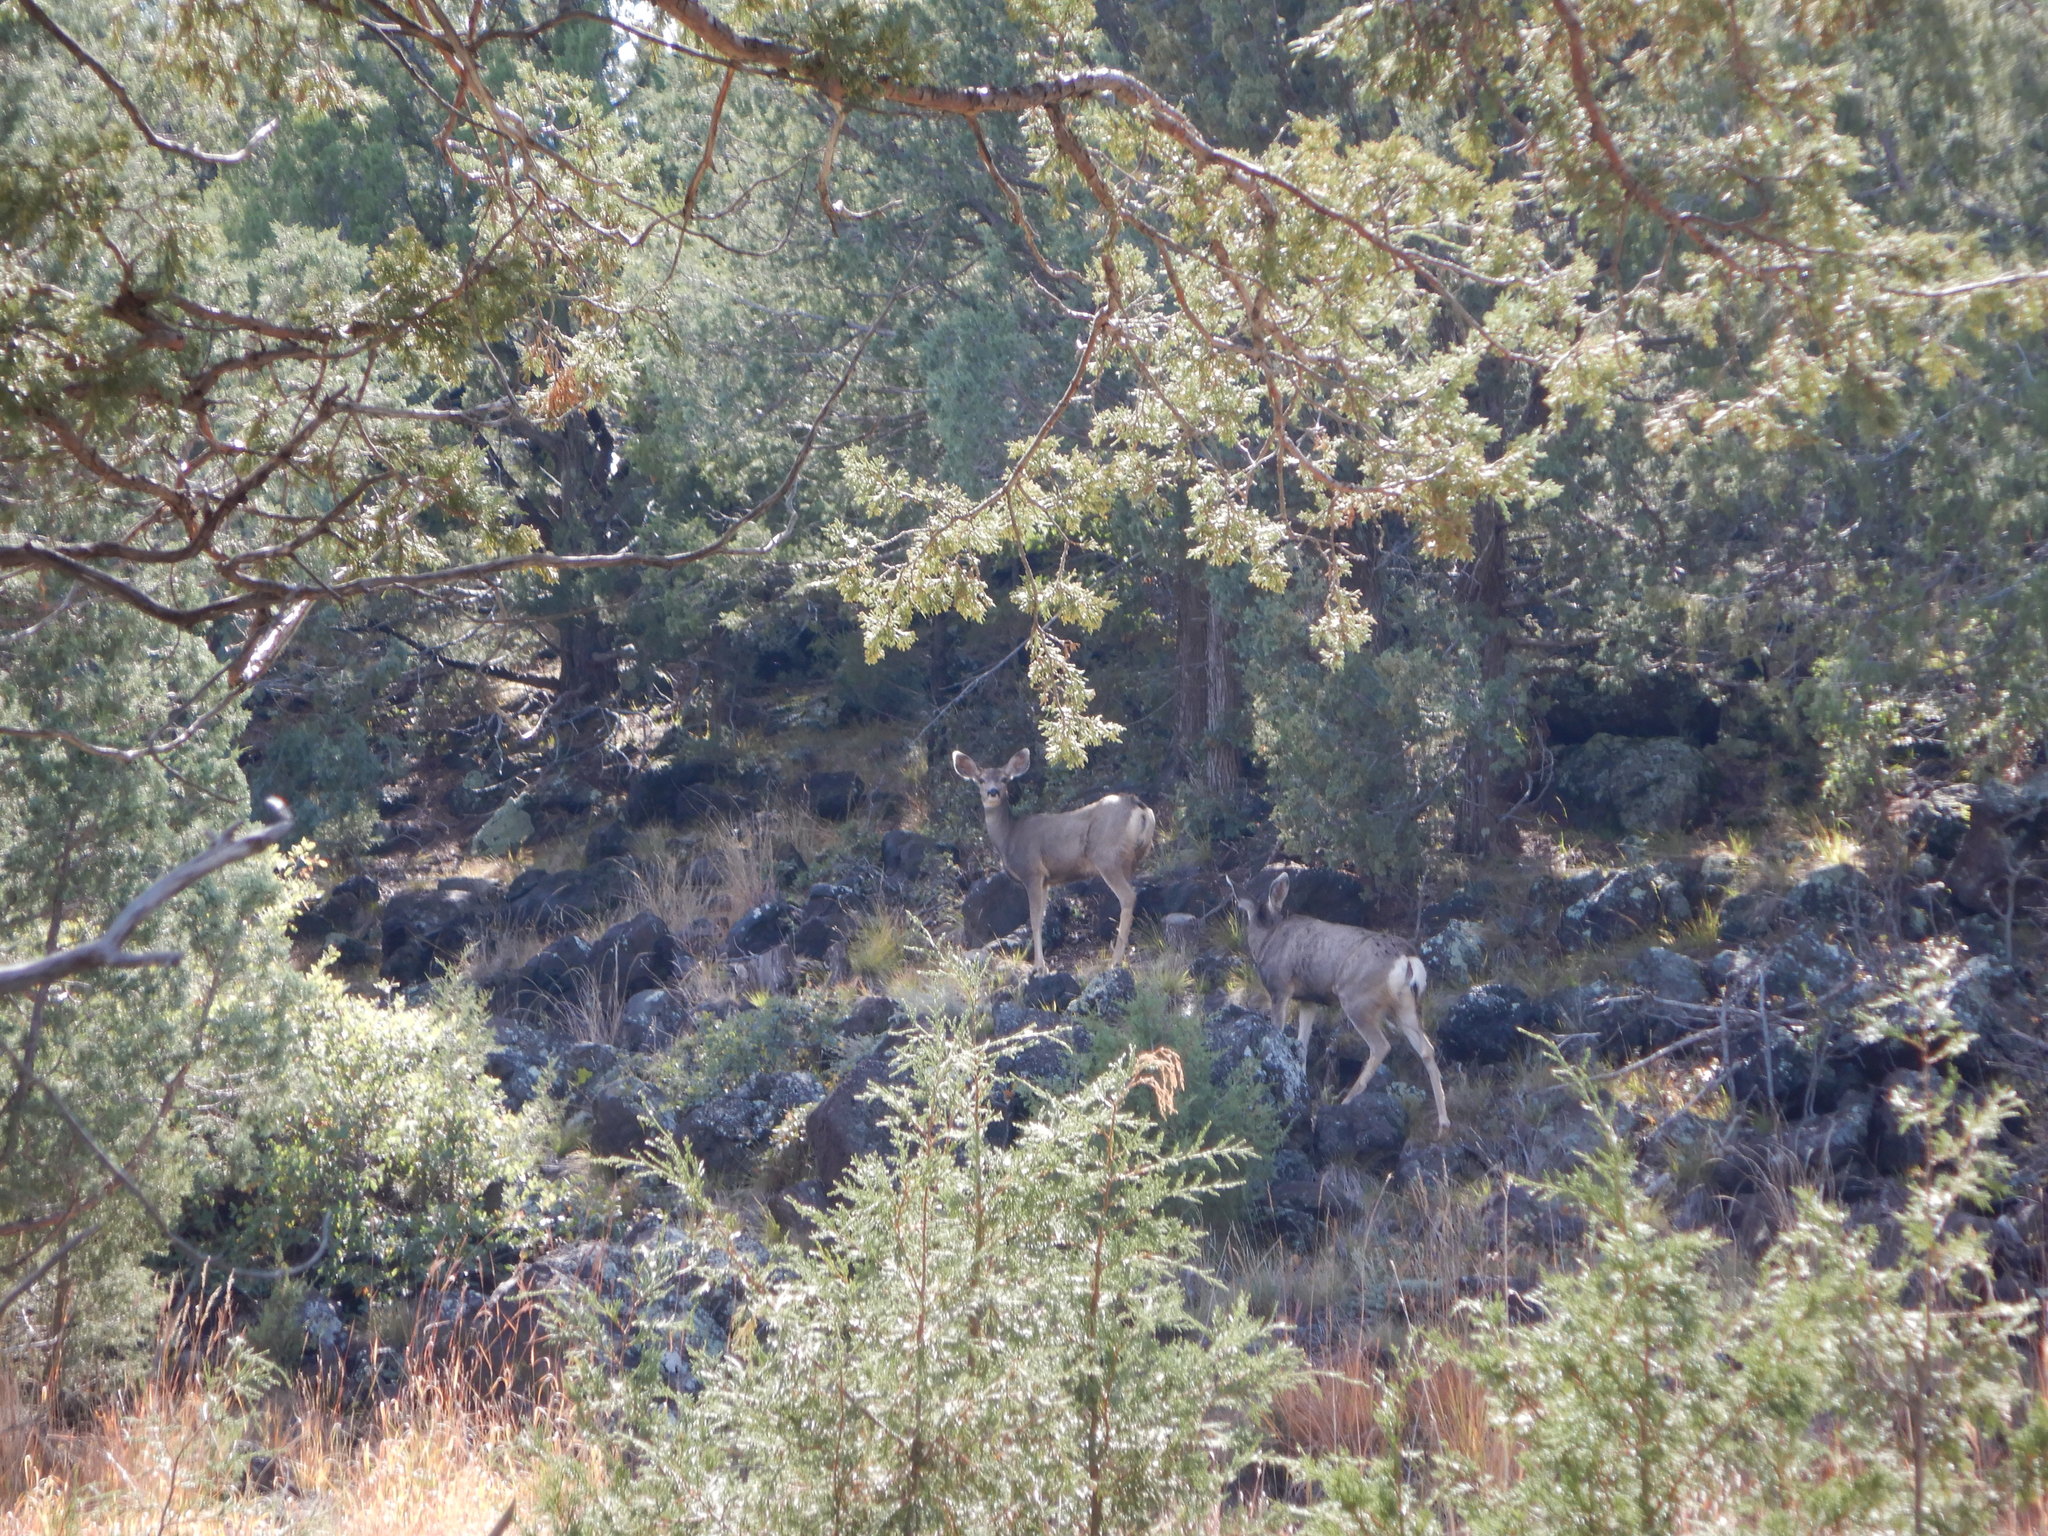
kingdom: Animalia
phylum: Chordata
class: Mammalia
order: Artiodactyla
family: Cervidae
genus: Odocoileus
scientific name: Odocoileus hemionus
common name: Mule deer
